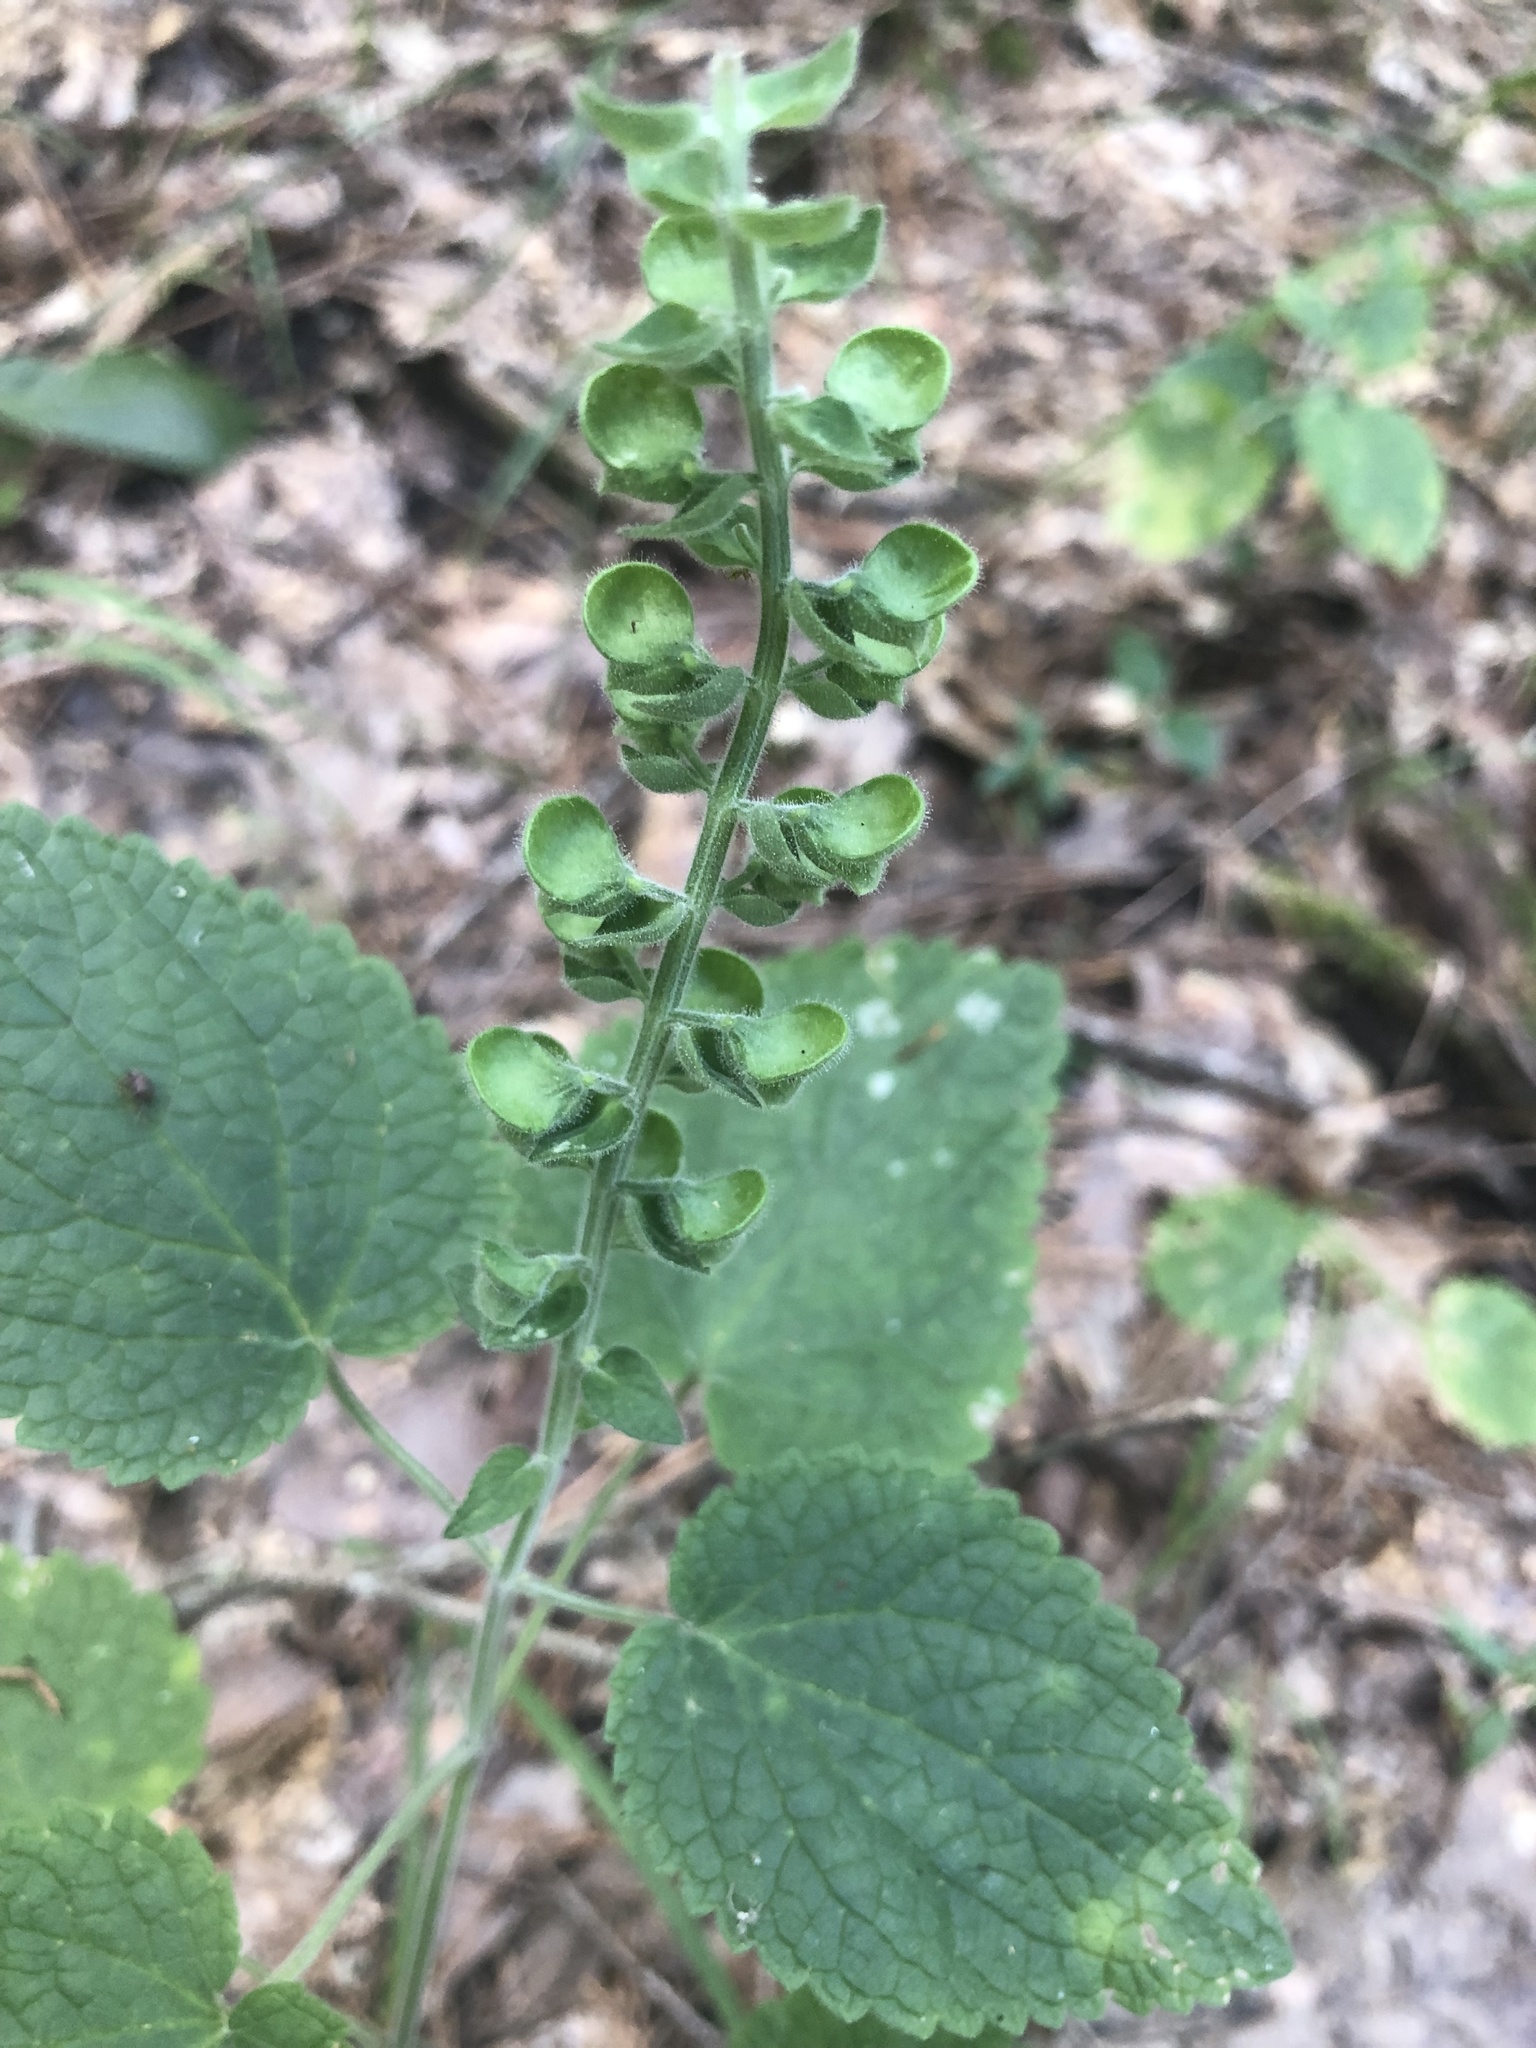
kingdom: Plantae
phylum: Tracheophyta
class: Magnoliopsida
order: Lamiales
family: Lamiaceae
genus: Scutellaria
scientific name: Scutellaria ovata
